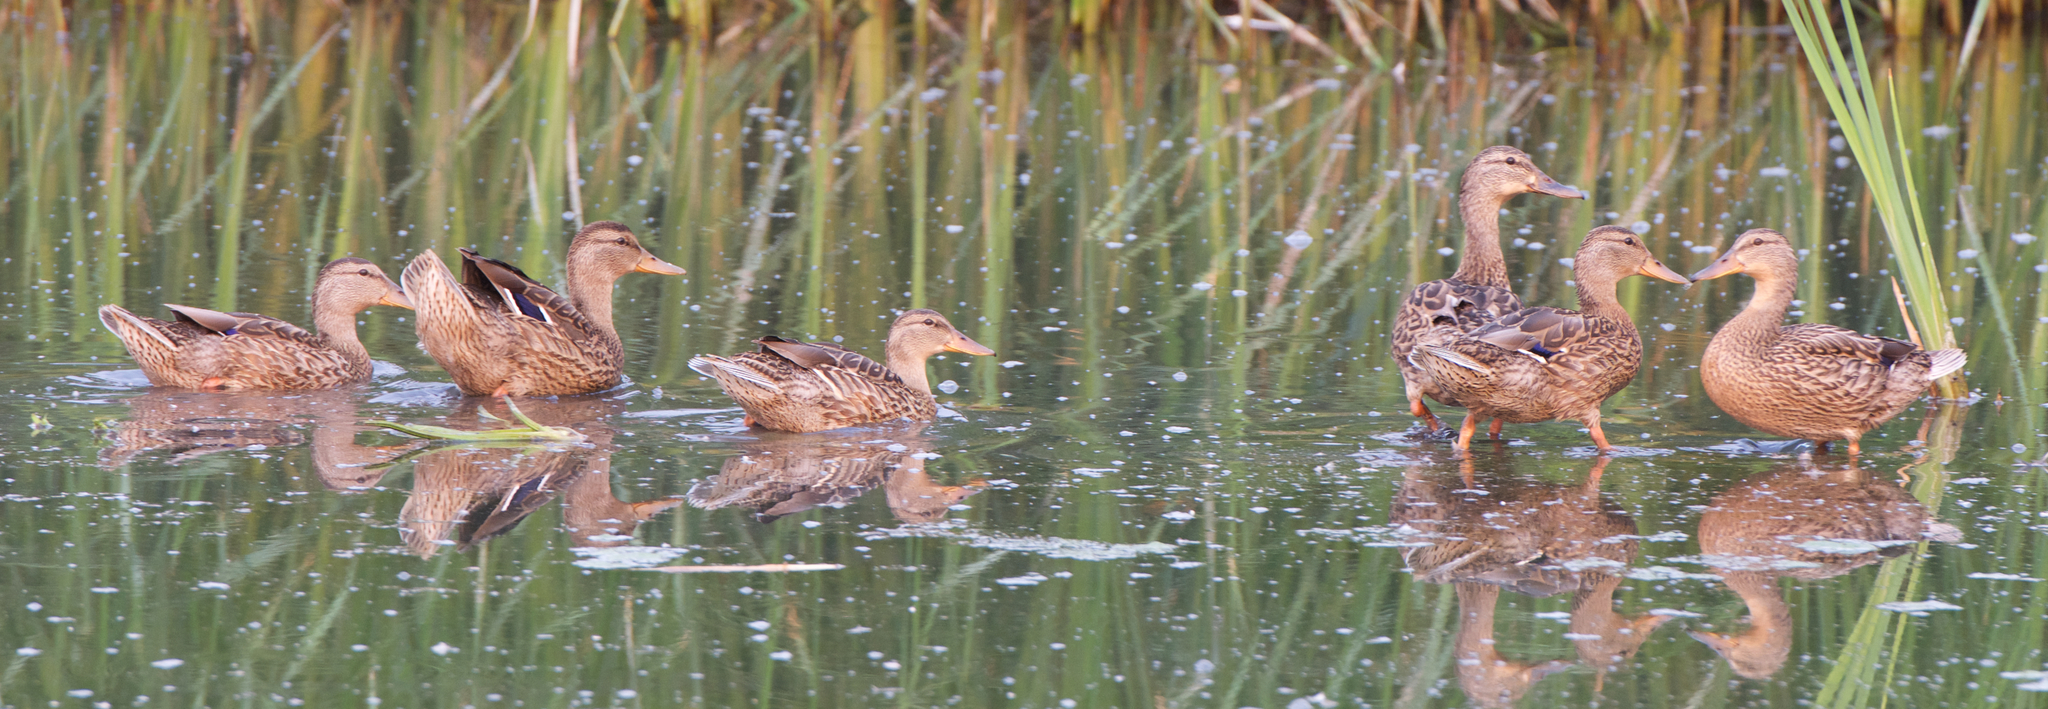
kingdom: Animalia
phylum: Chordata
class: Aves
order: Anseriformes
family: Anatidae
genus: Spatula
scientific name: Spatula cyanoptera
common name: Cinnamon teal
